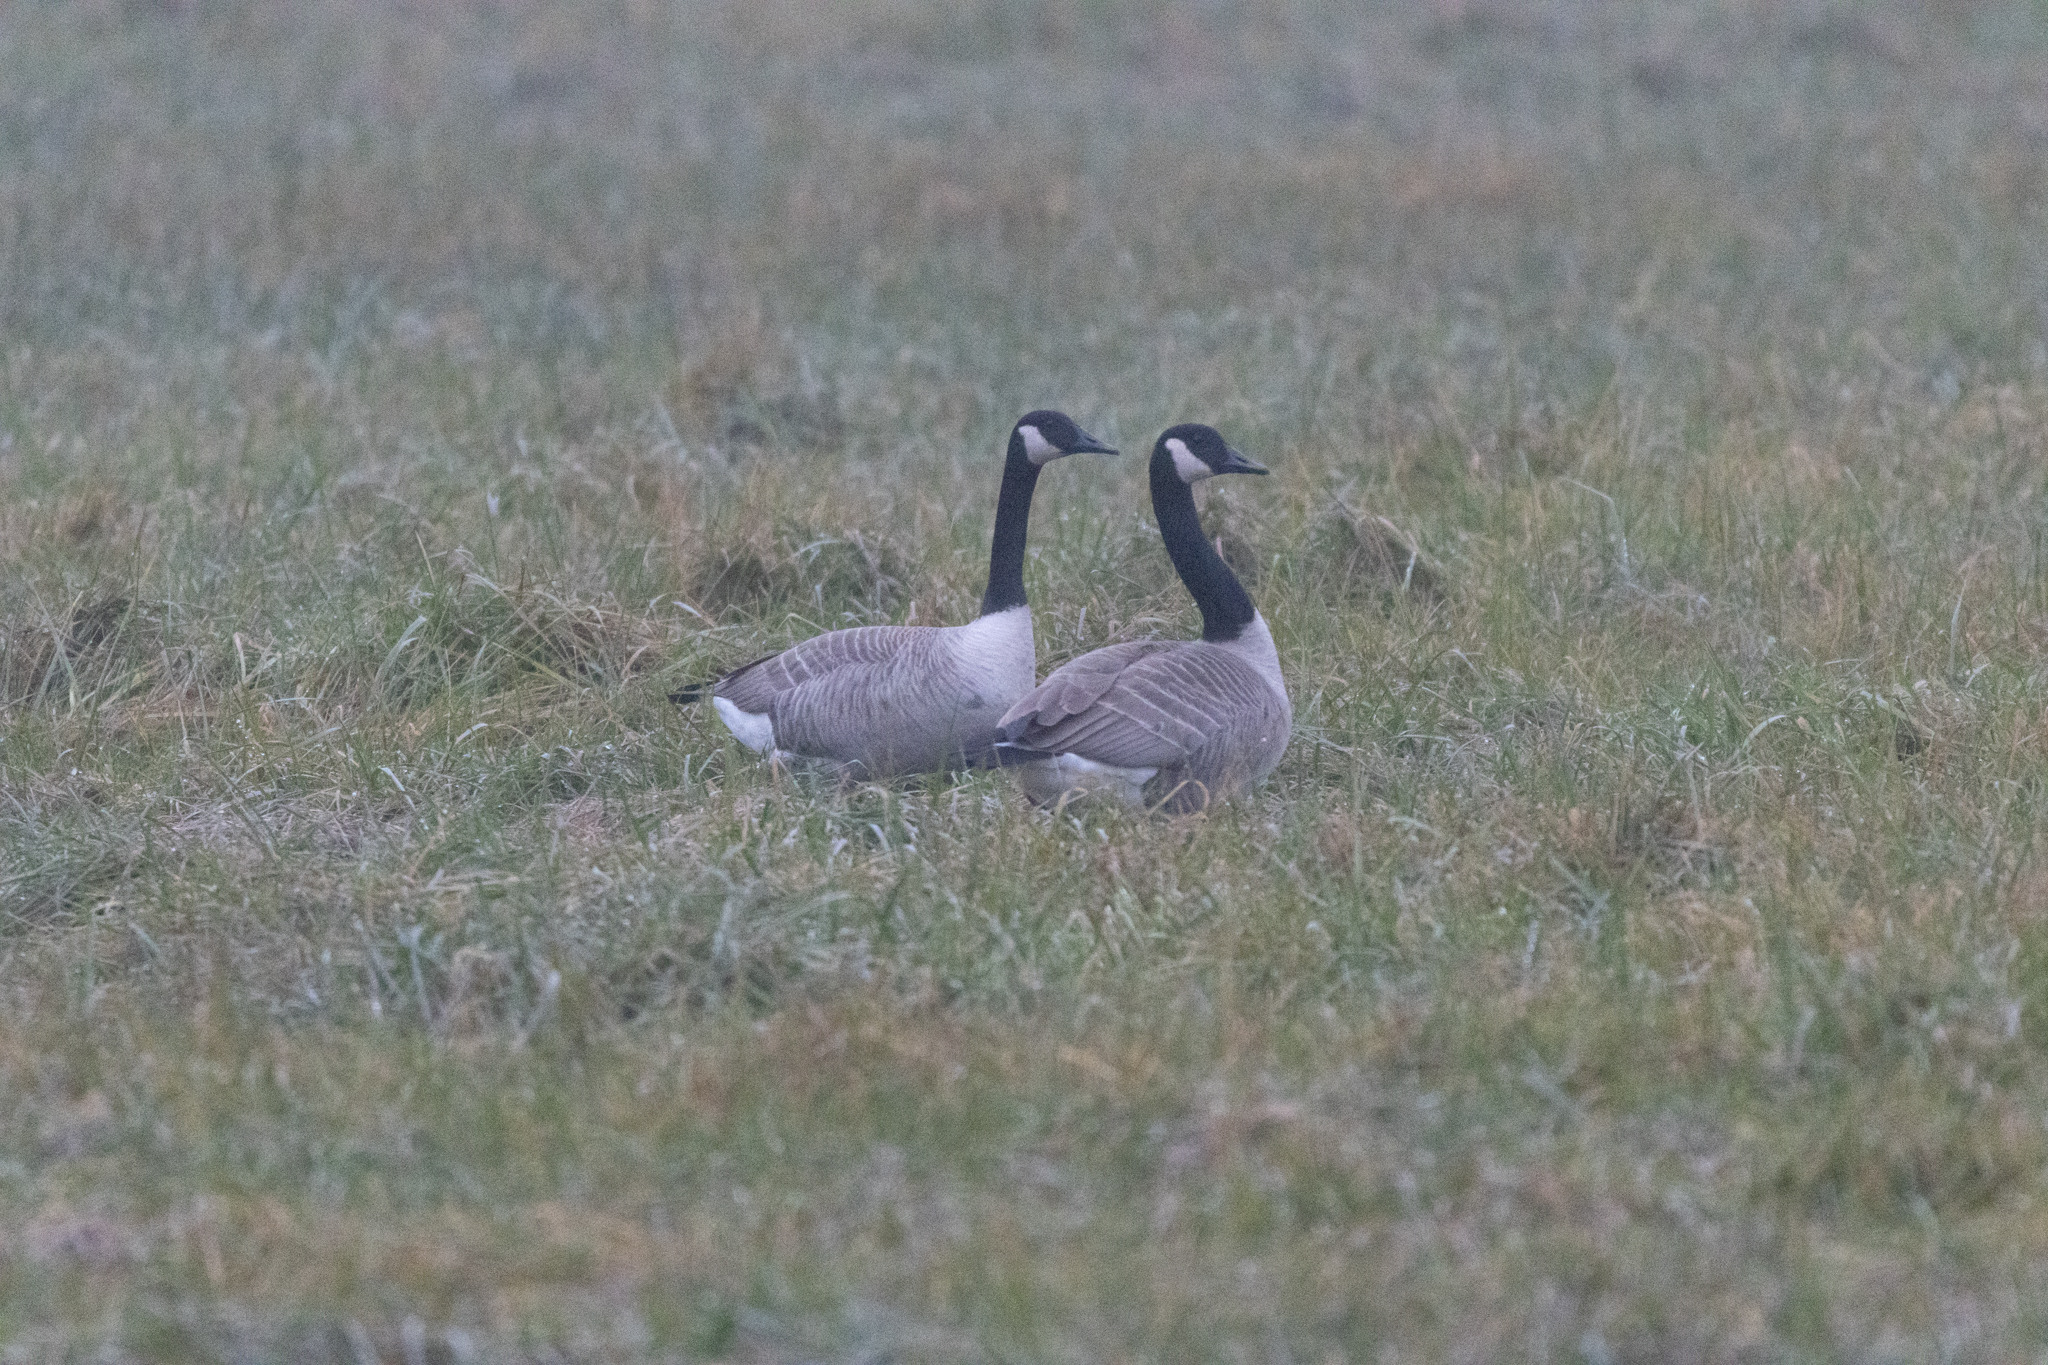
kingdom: Animalia
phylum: Chordata
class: Aves
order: Anseriformes
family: Anatidae
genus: Branta
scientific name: Branta canadensis
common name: Canada goose
